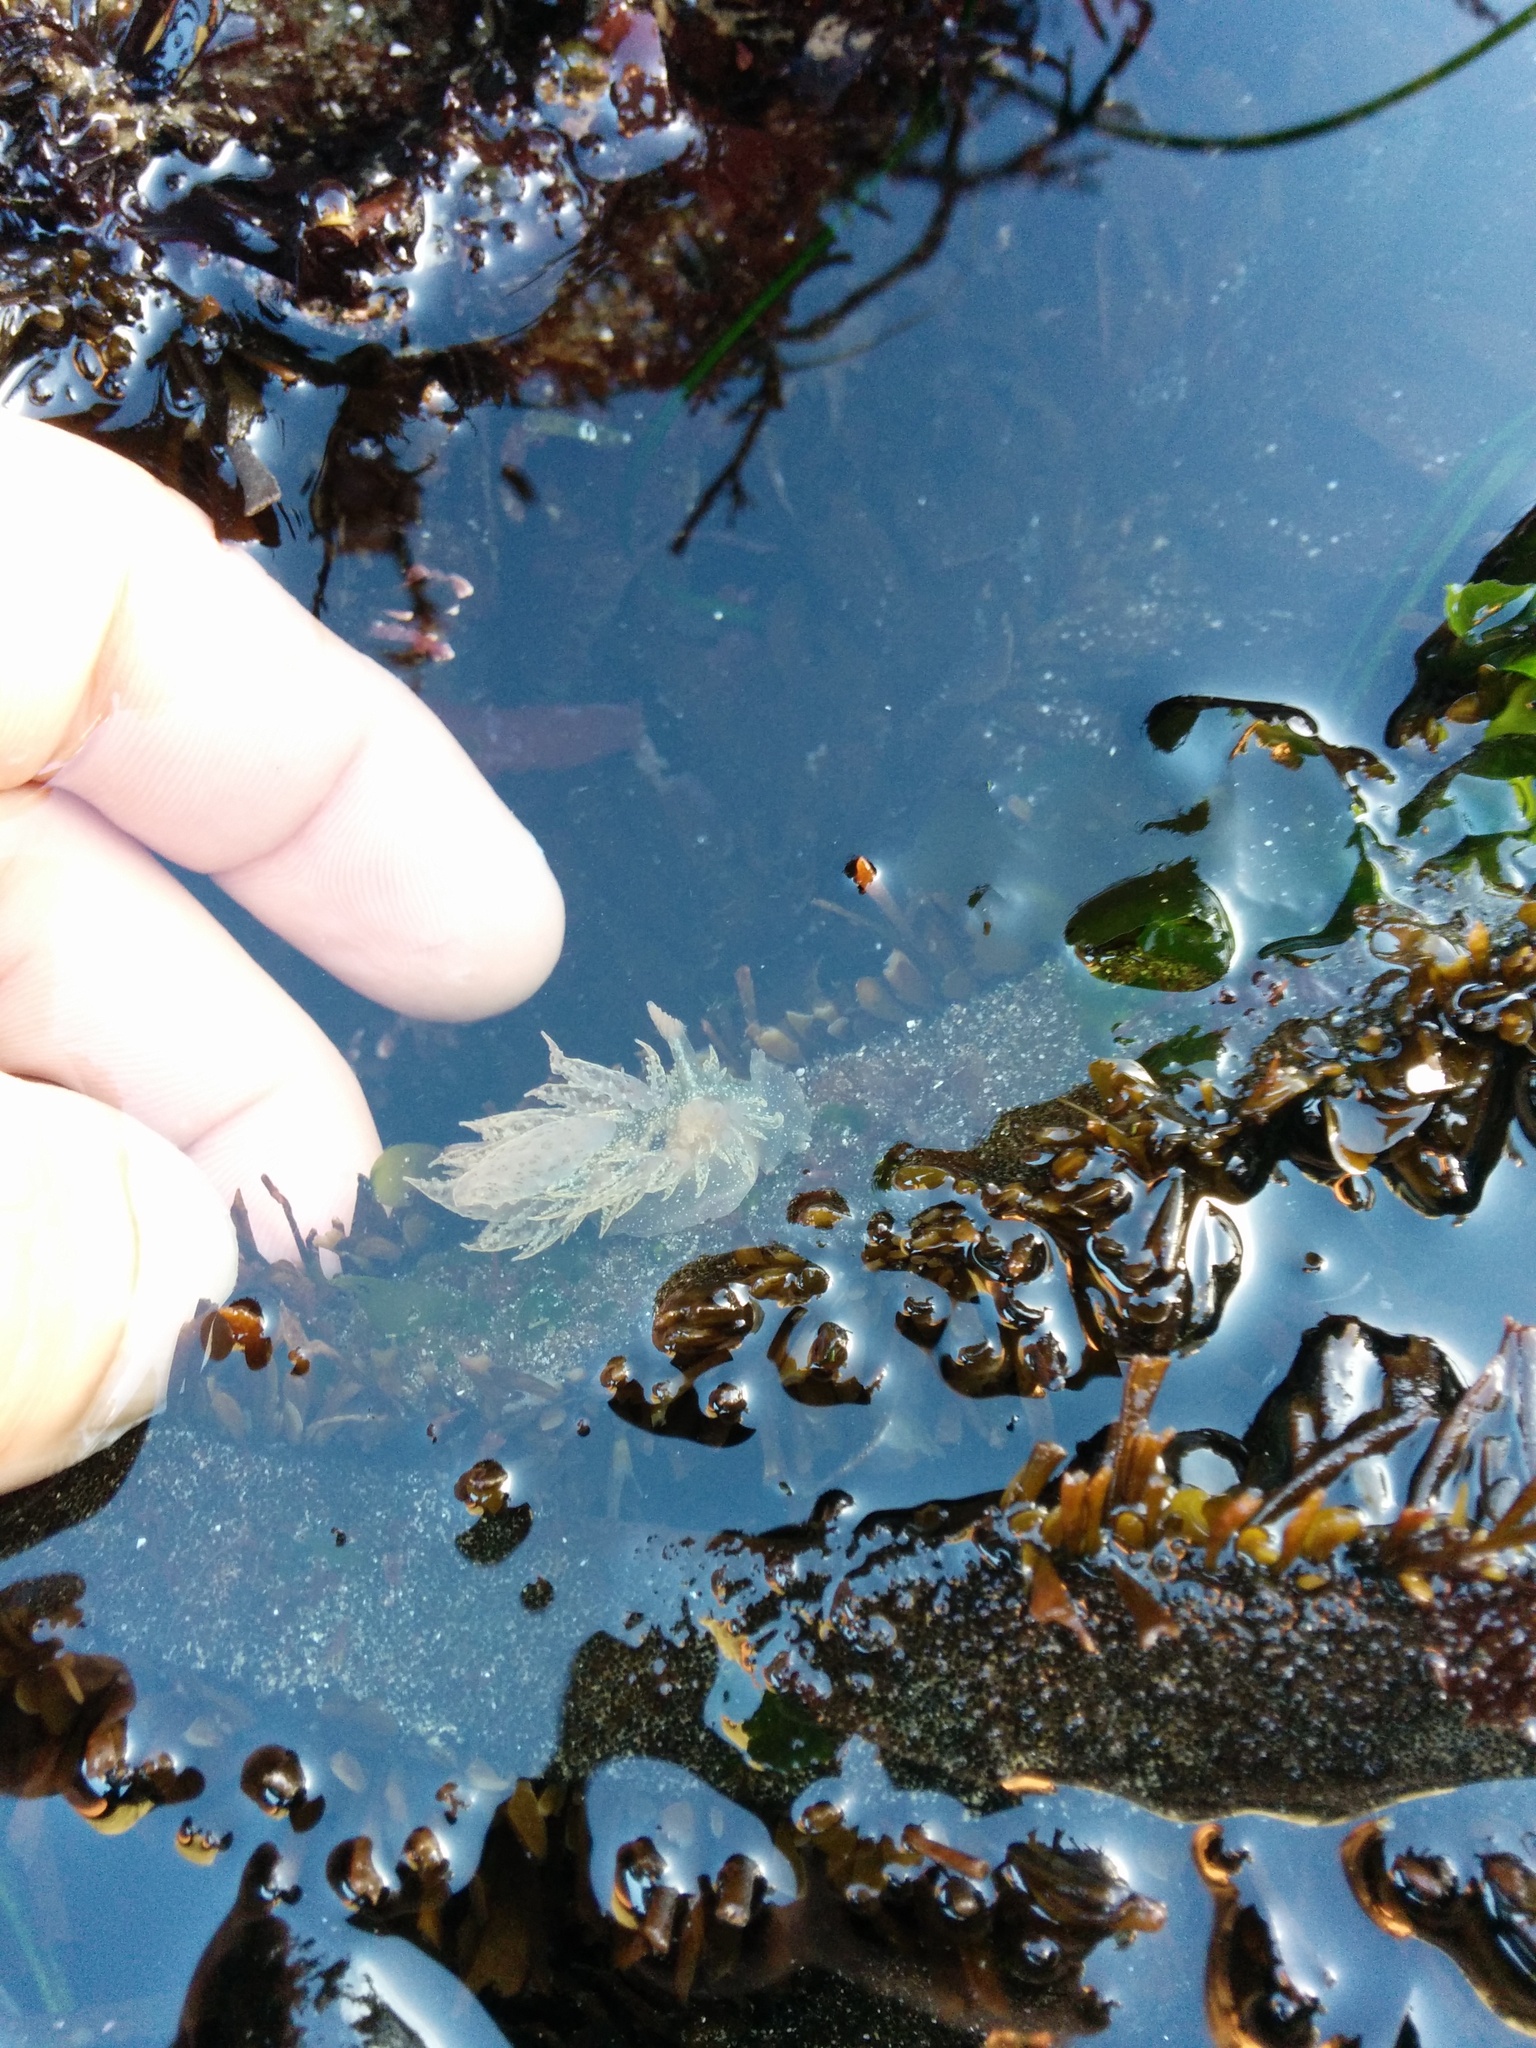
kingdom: Animalia
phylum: Mollusca
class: Gastropoda
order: Nudibranchia
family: Dironidae
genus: Dirona
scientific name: Dirona picta
